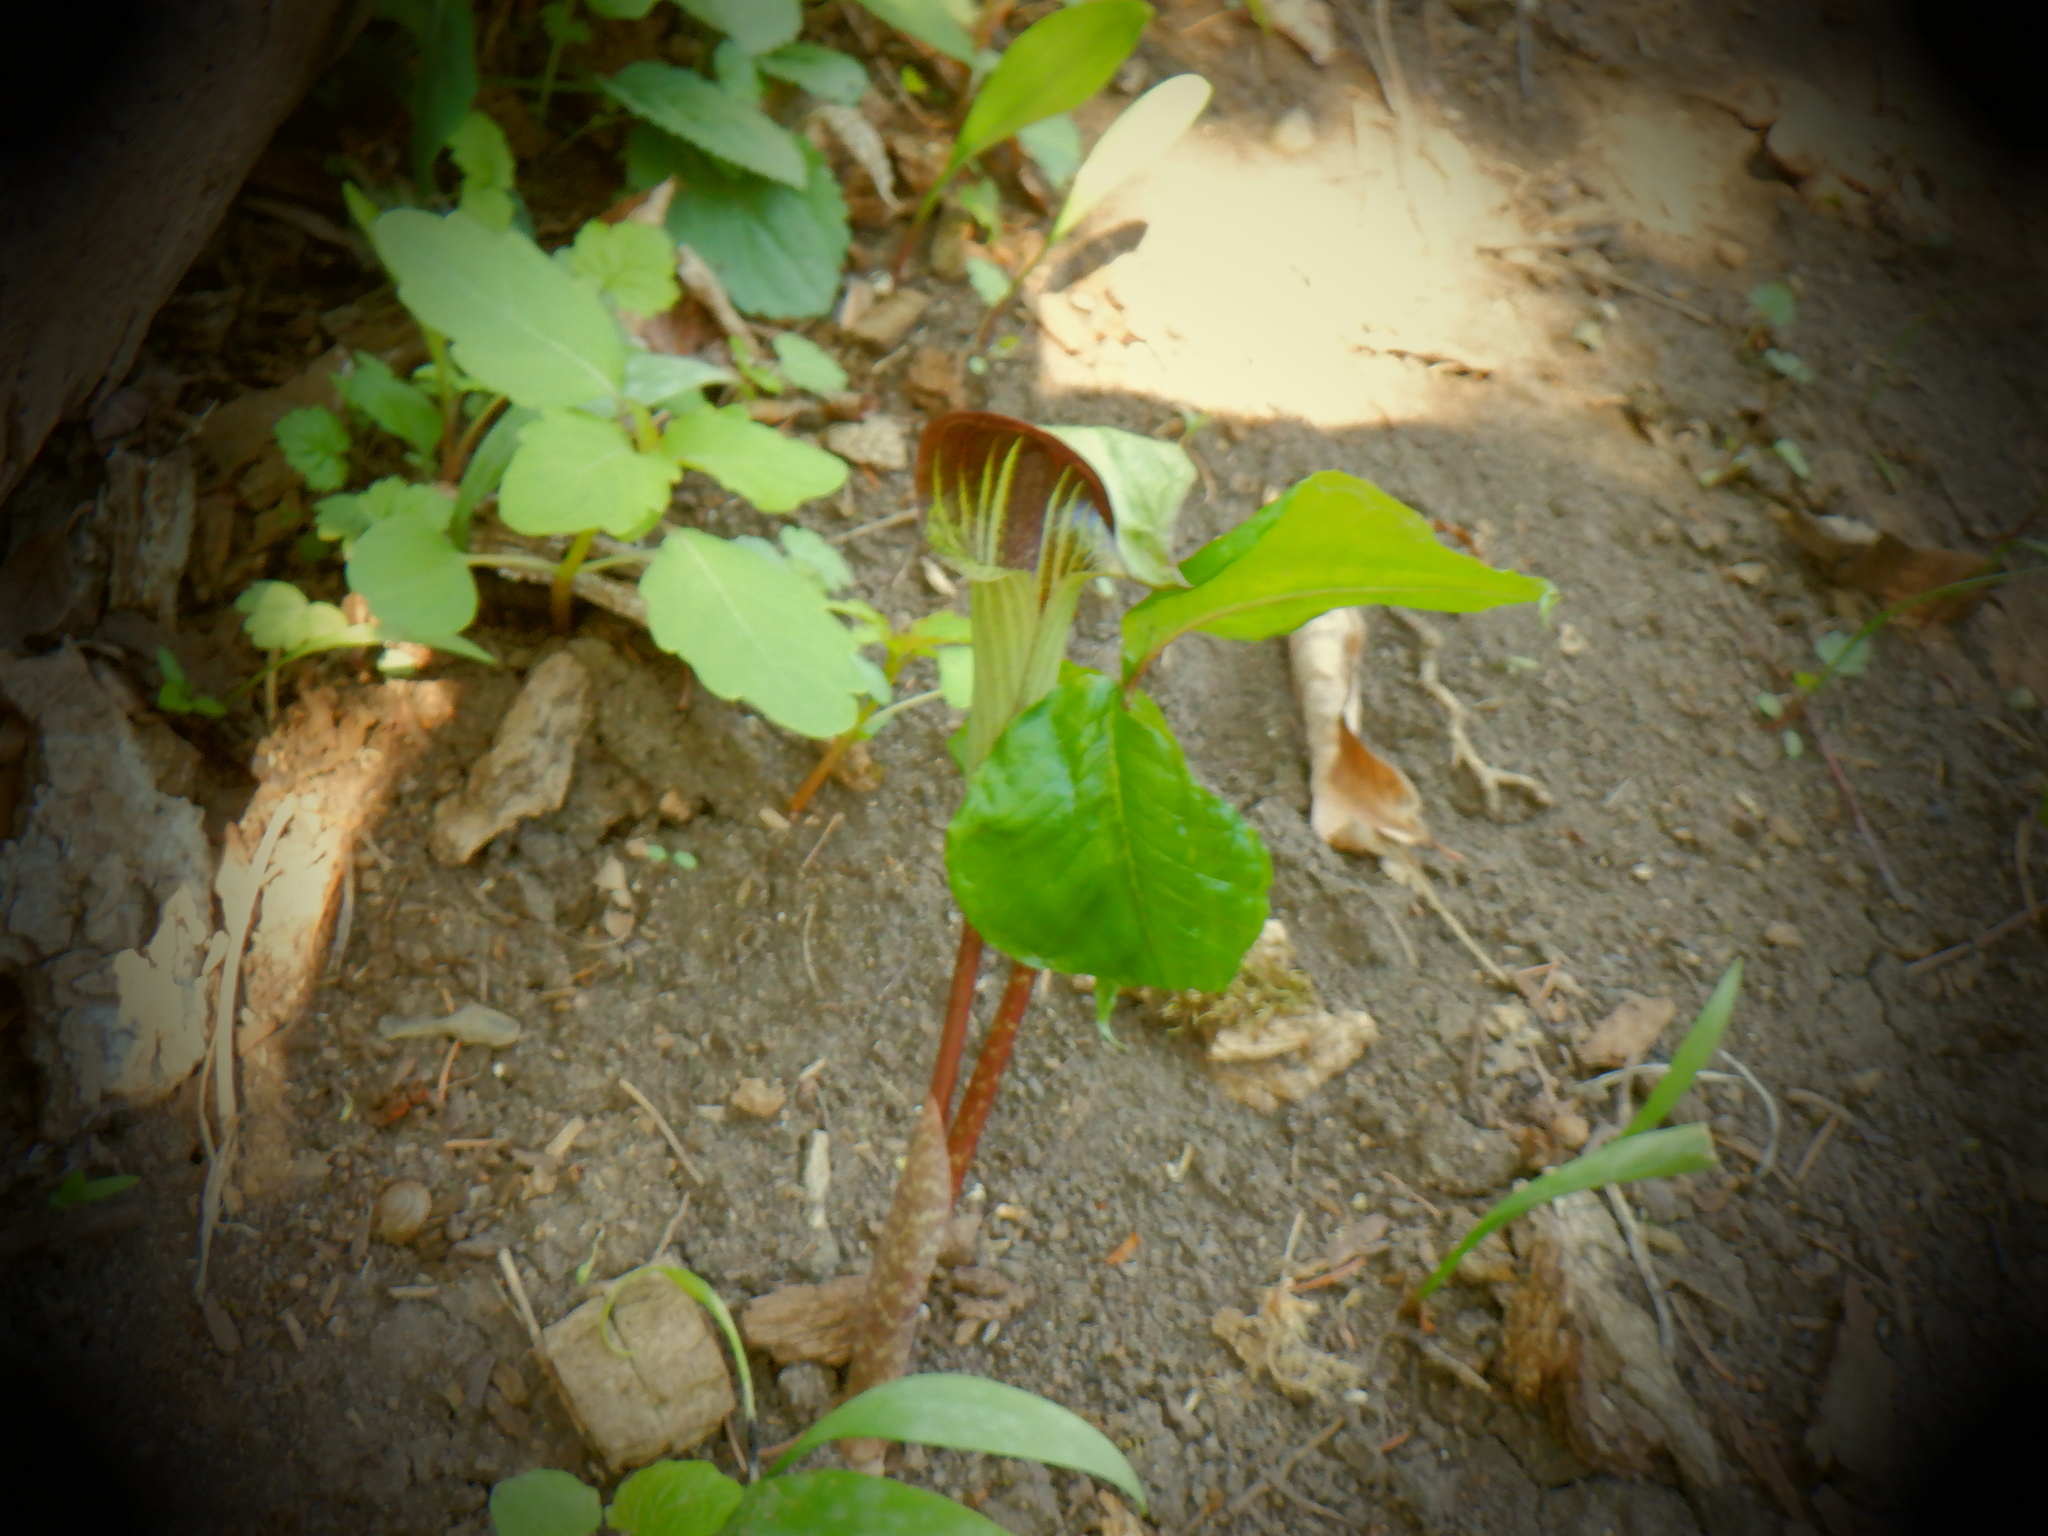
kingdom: Plantae
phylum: Tracheophyta
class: Liliopsida
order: Alismatales
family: Araceae
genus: Arisaema
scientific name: Arisaema triphyllum
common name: Jack-in-the-pulpit
